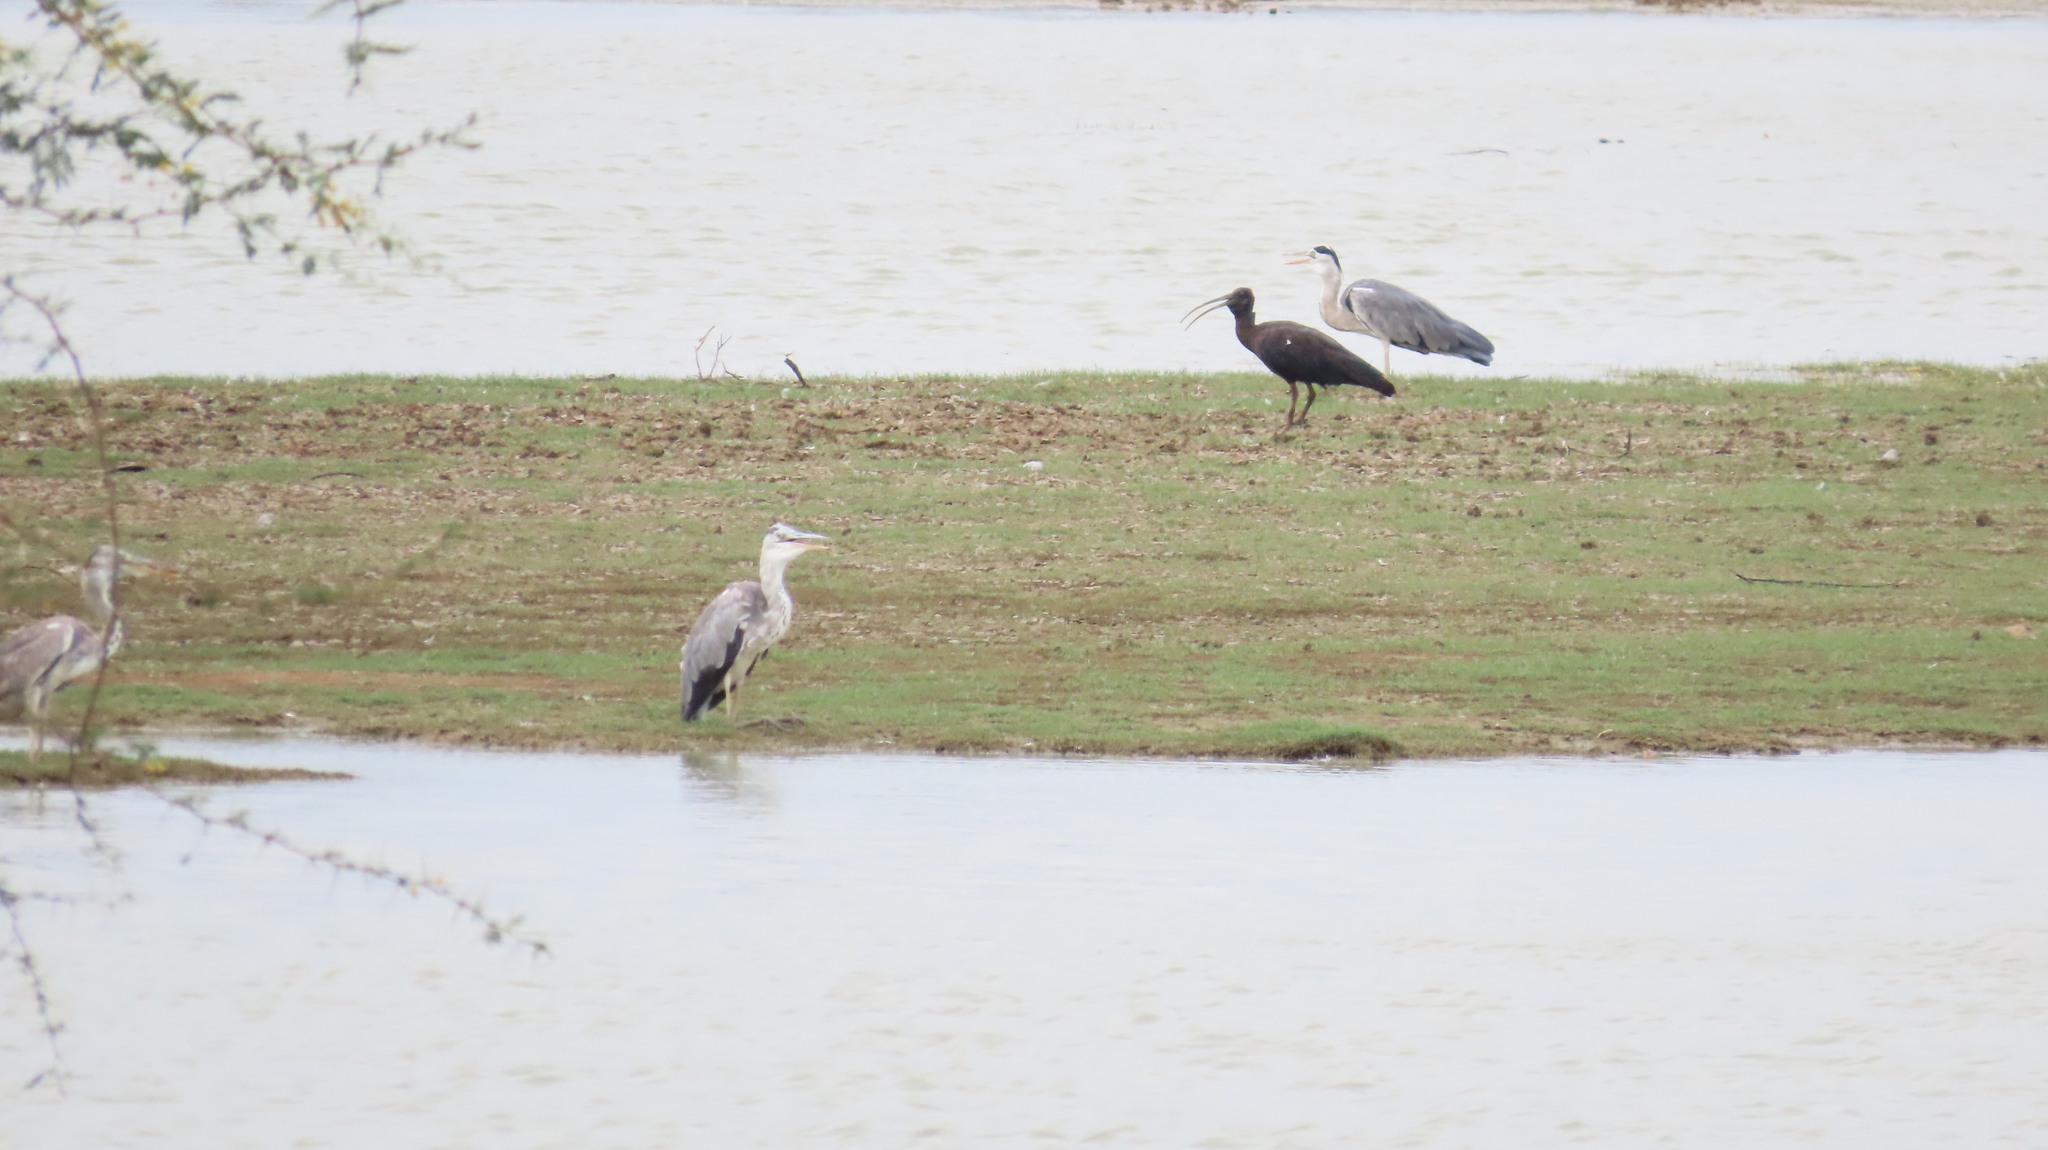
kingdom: Animalia
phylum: Chordata
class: Aves
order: Pelecaniformes
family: Threskiornithidae
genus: Pseudibis
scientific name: Pseudibis papillosa
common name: Red-naped ibis
